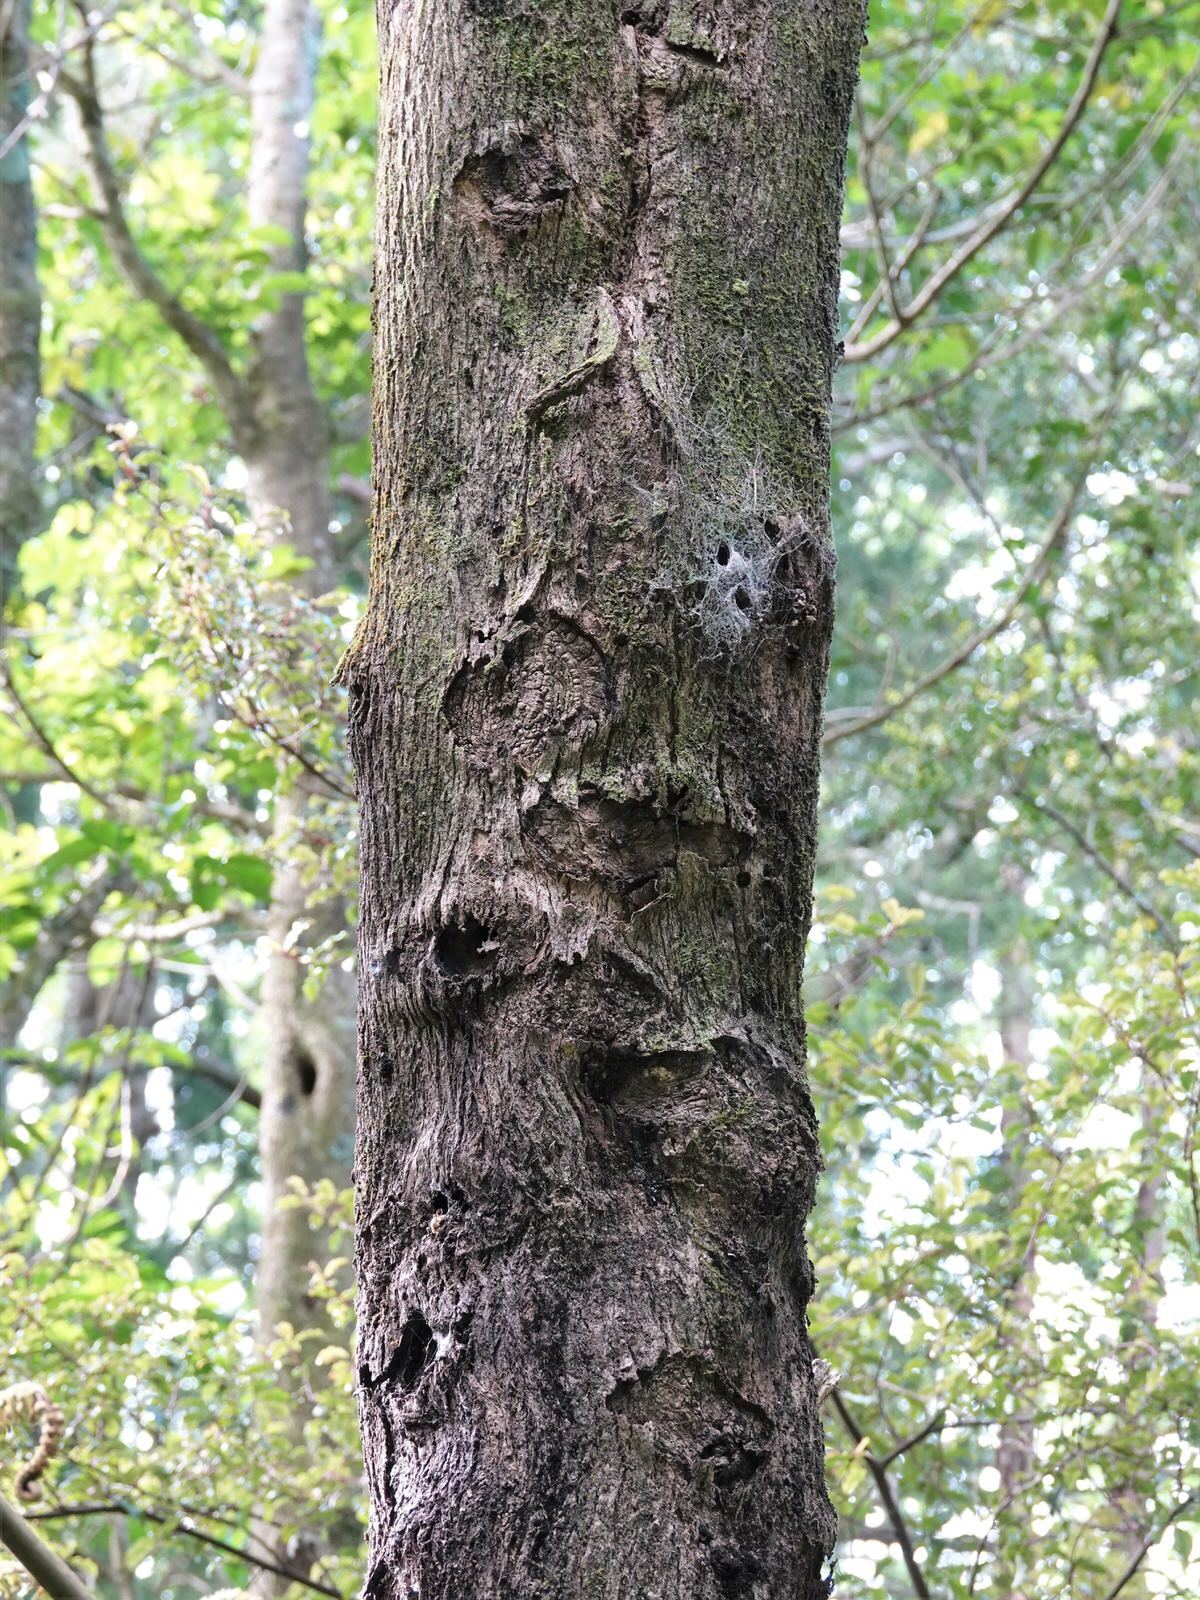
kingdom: Animalia
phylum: Arthropoda
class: Insecta
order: Lepidoptera
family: Hepialidae
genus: Aenetus
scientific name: Aenetus virescens
